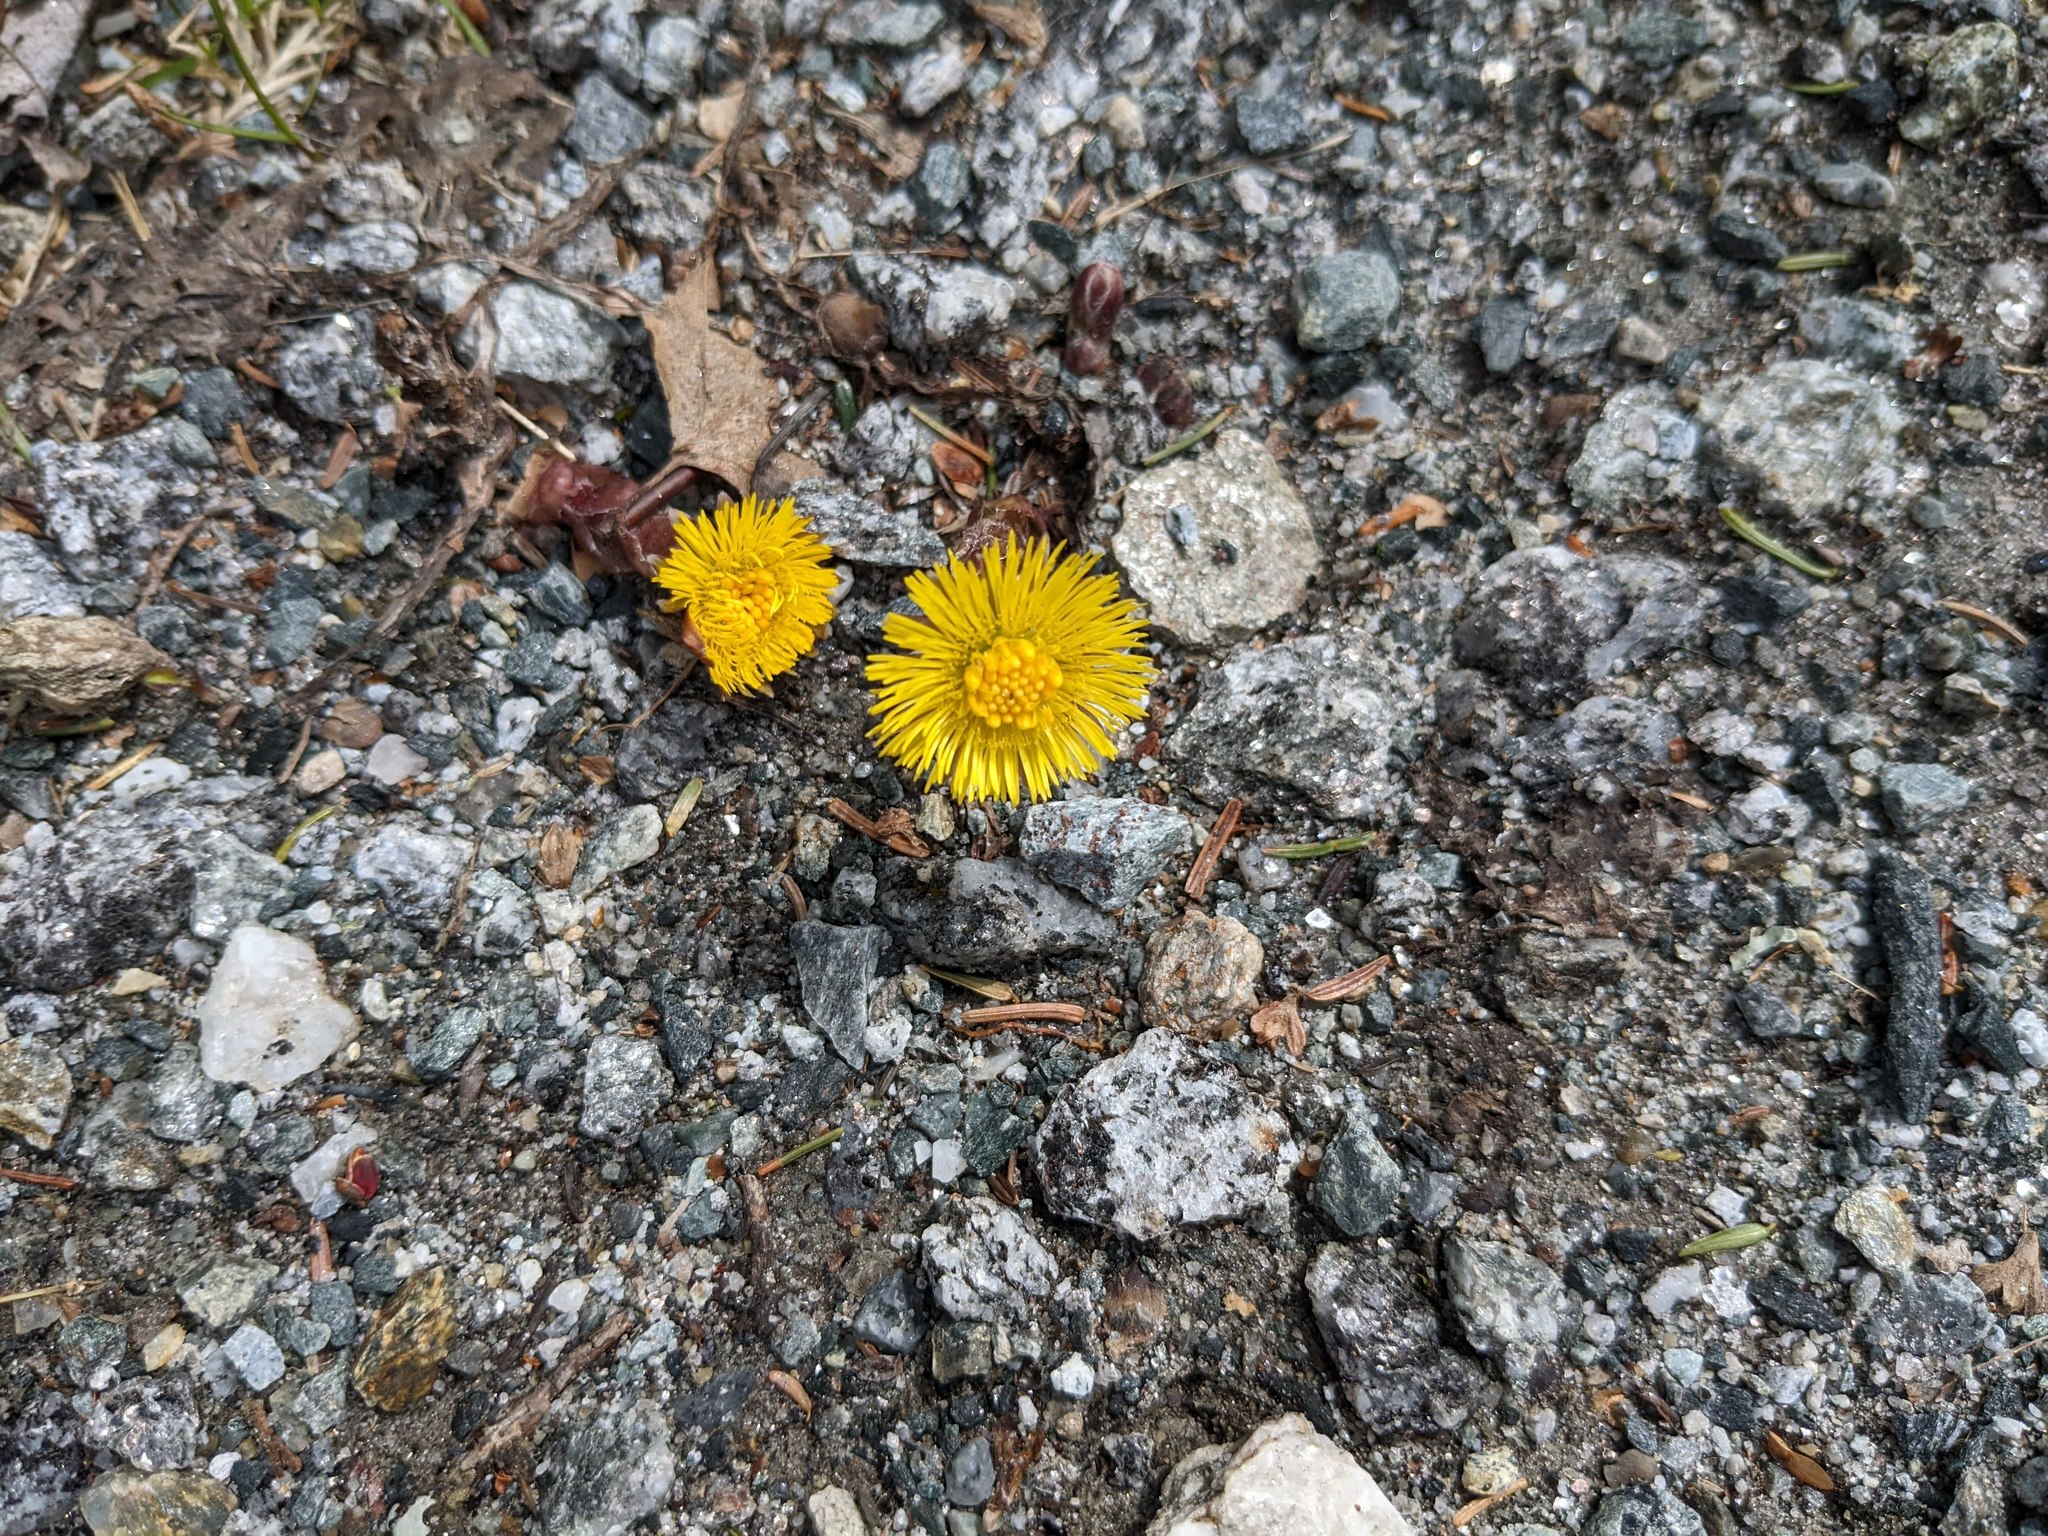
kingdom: Plantae
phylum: Tracheophyta
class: Magnoliopsida
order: Asterales
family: Asteraceae
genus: Tussilago
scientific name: Tussilago farfara
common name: Coltsfoot
